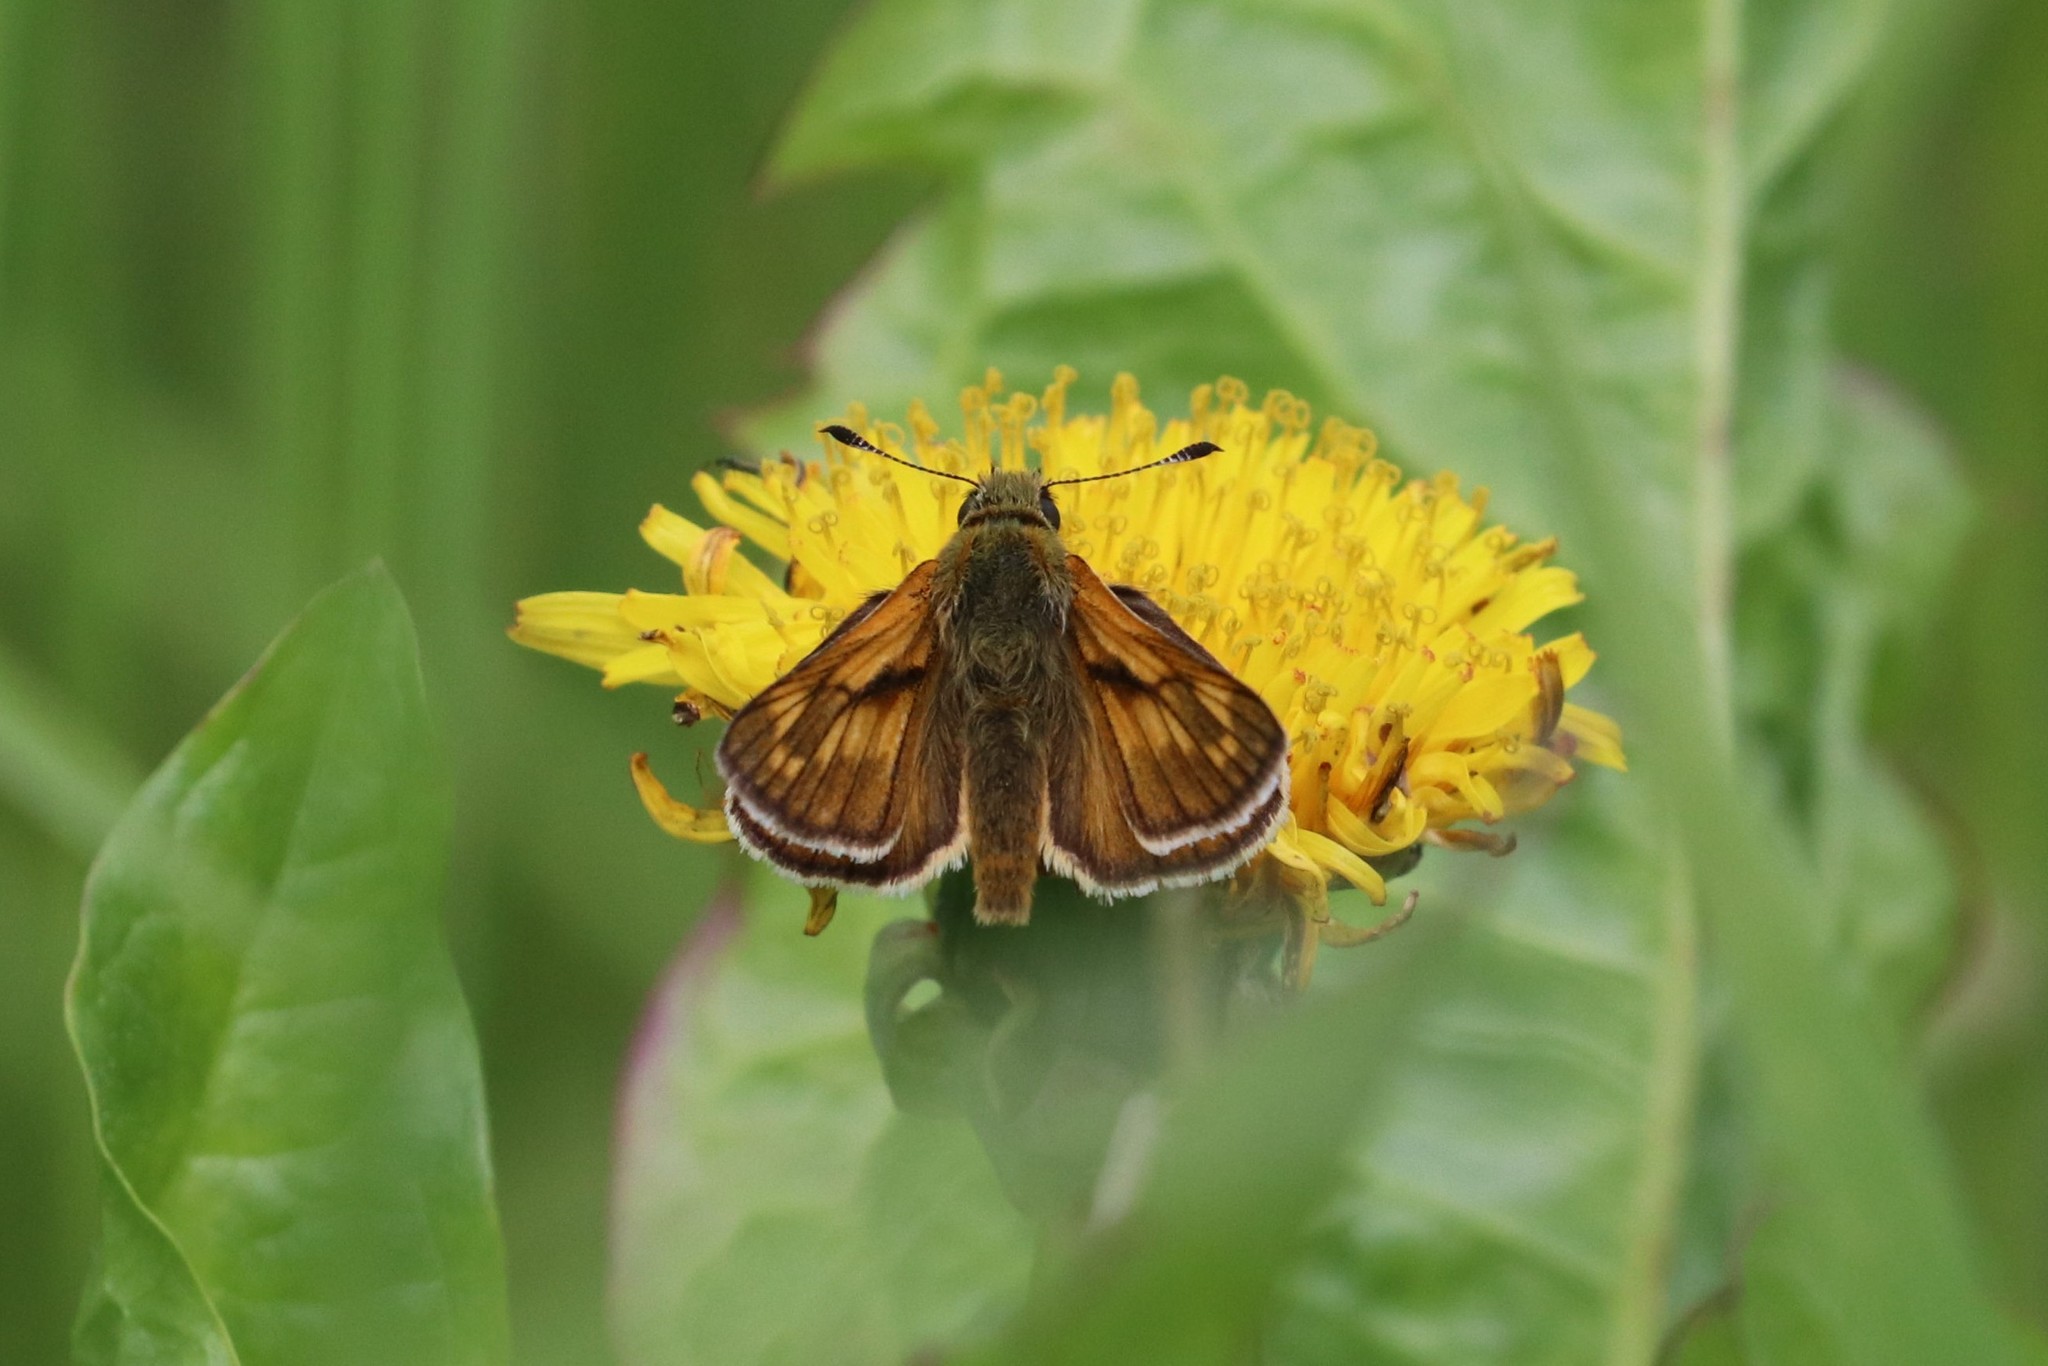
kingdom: Animalia
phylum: Arthropoda
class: Insecta
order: Lepidoptera
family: Hesperiidae
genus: Ochlodes
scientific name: Ochlodes venata
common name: Large skipper
